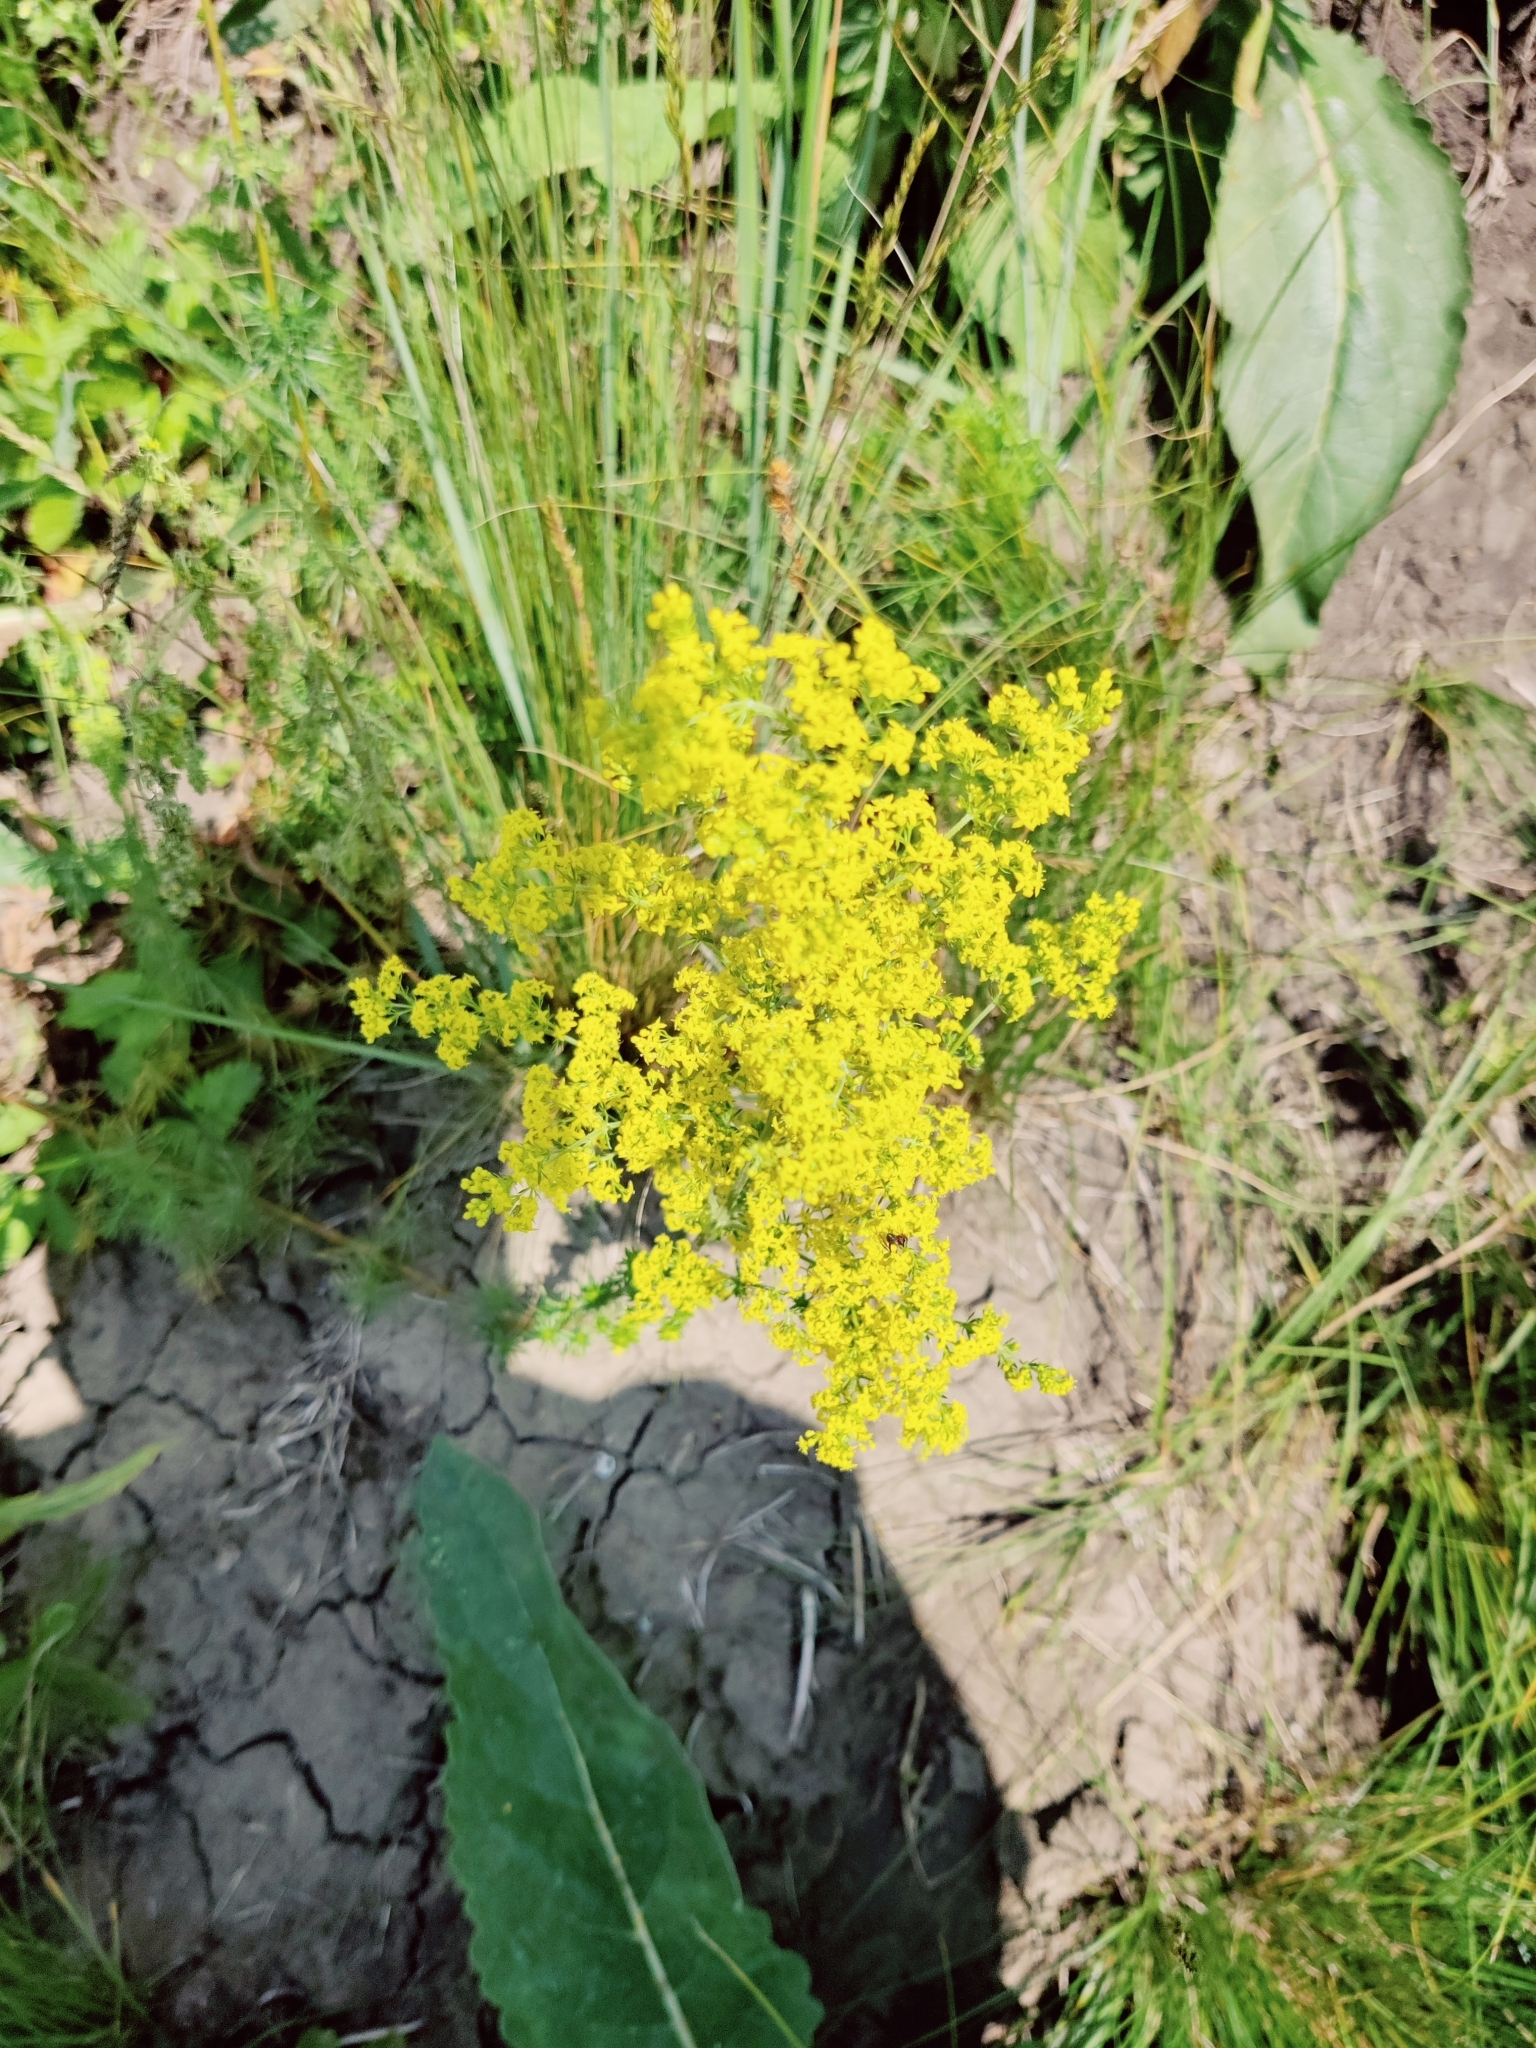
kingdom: Plantae
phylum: Tracheophyta
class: Magnoliopsida
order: Gentianales
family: Rubiaceae
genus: Galium
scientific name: Galium verum
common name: Lady's bedstraw
